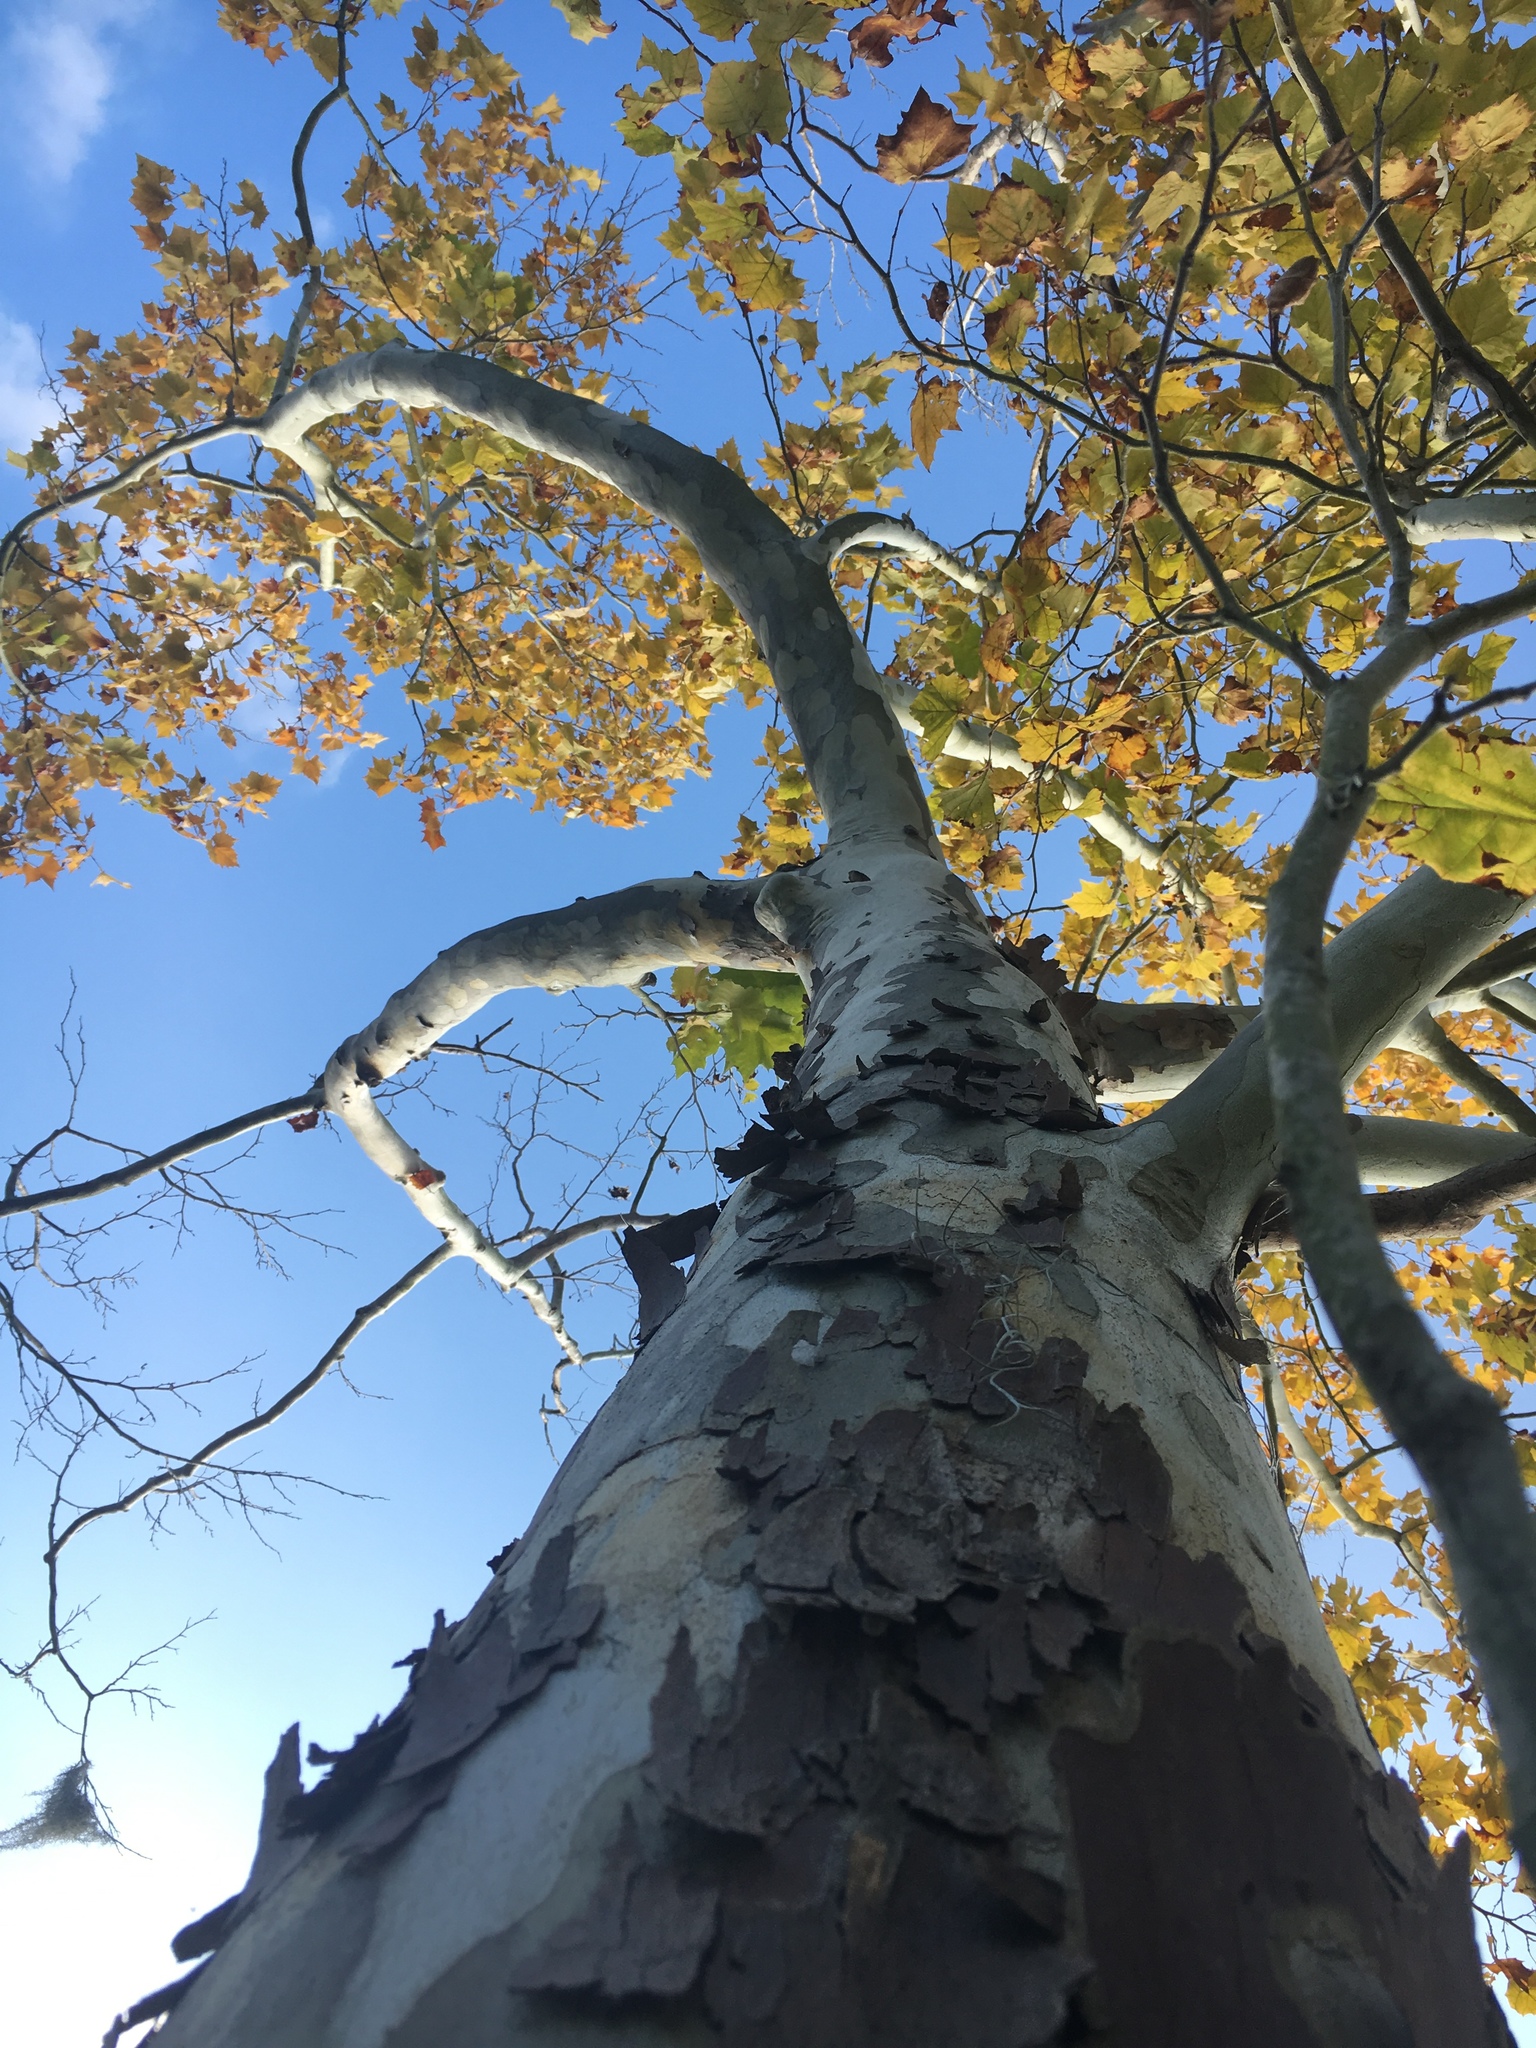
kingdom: Plantae
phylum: Tracheophyta
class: Magnoliopsida
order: Proteales
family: Platanaceae
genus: Platanus
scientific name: Platanus occidentalis
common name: American sycamore
